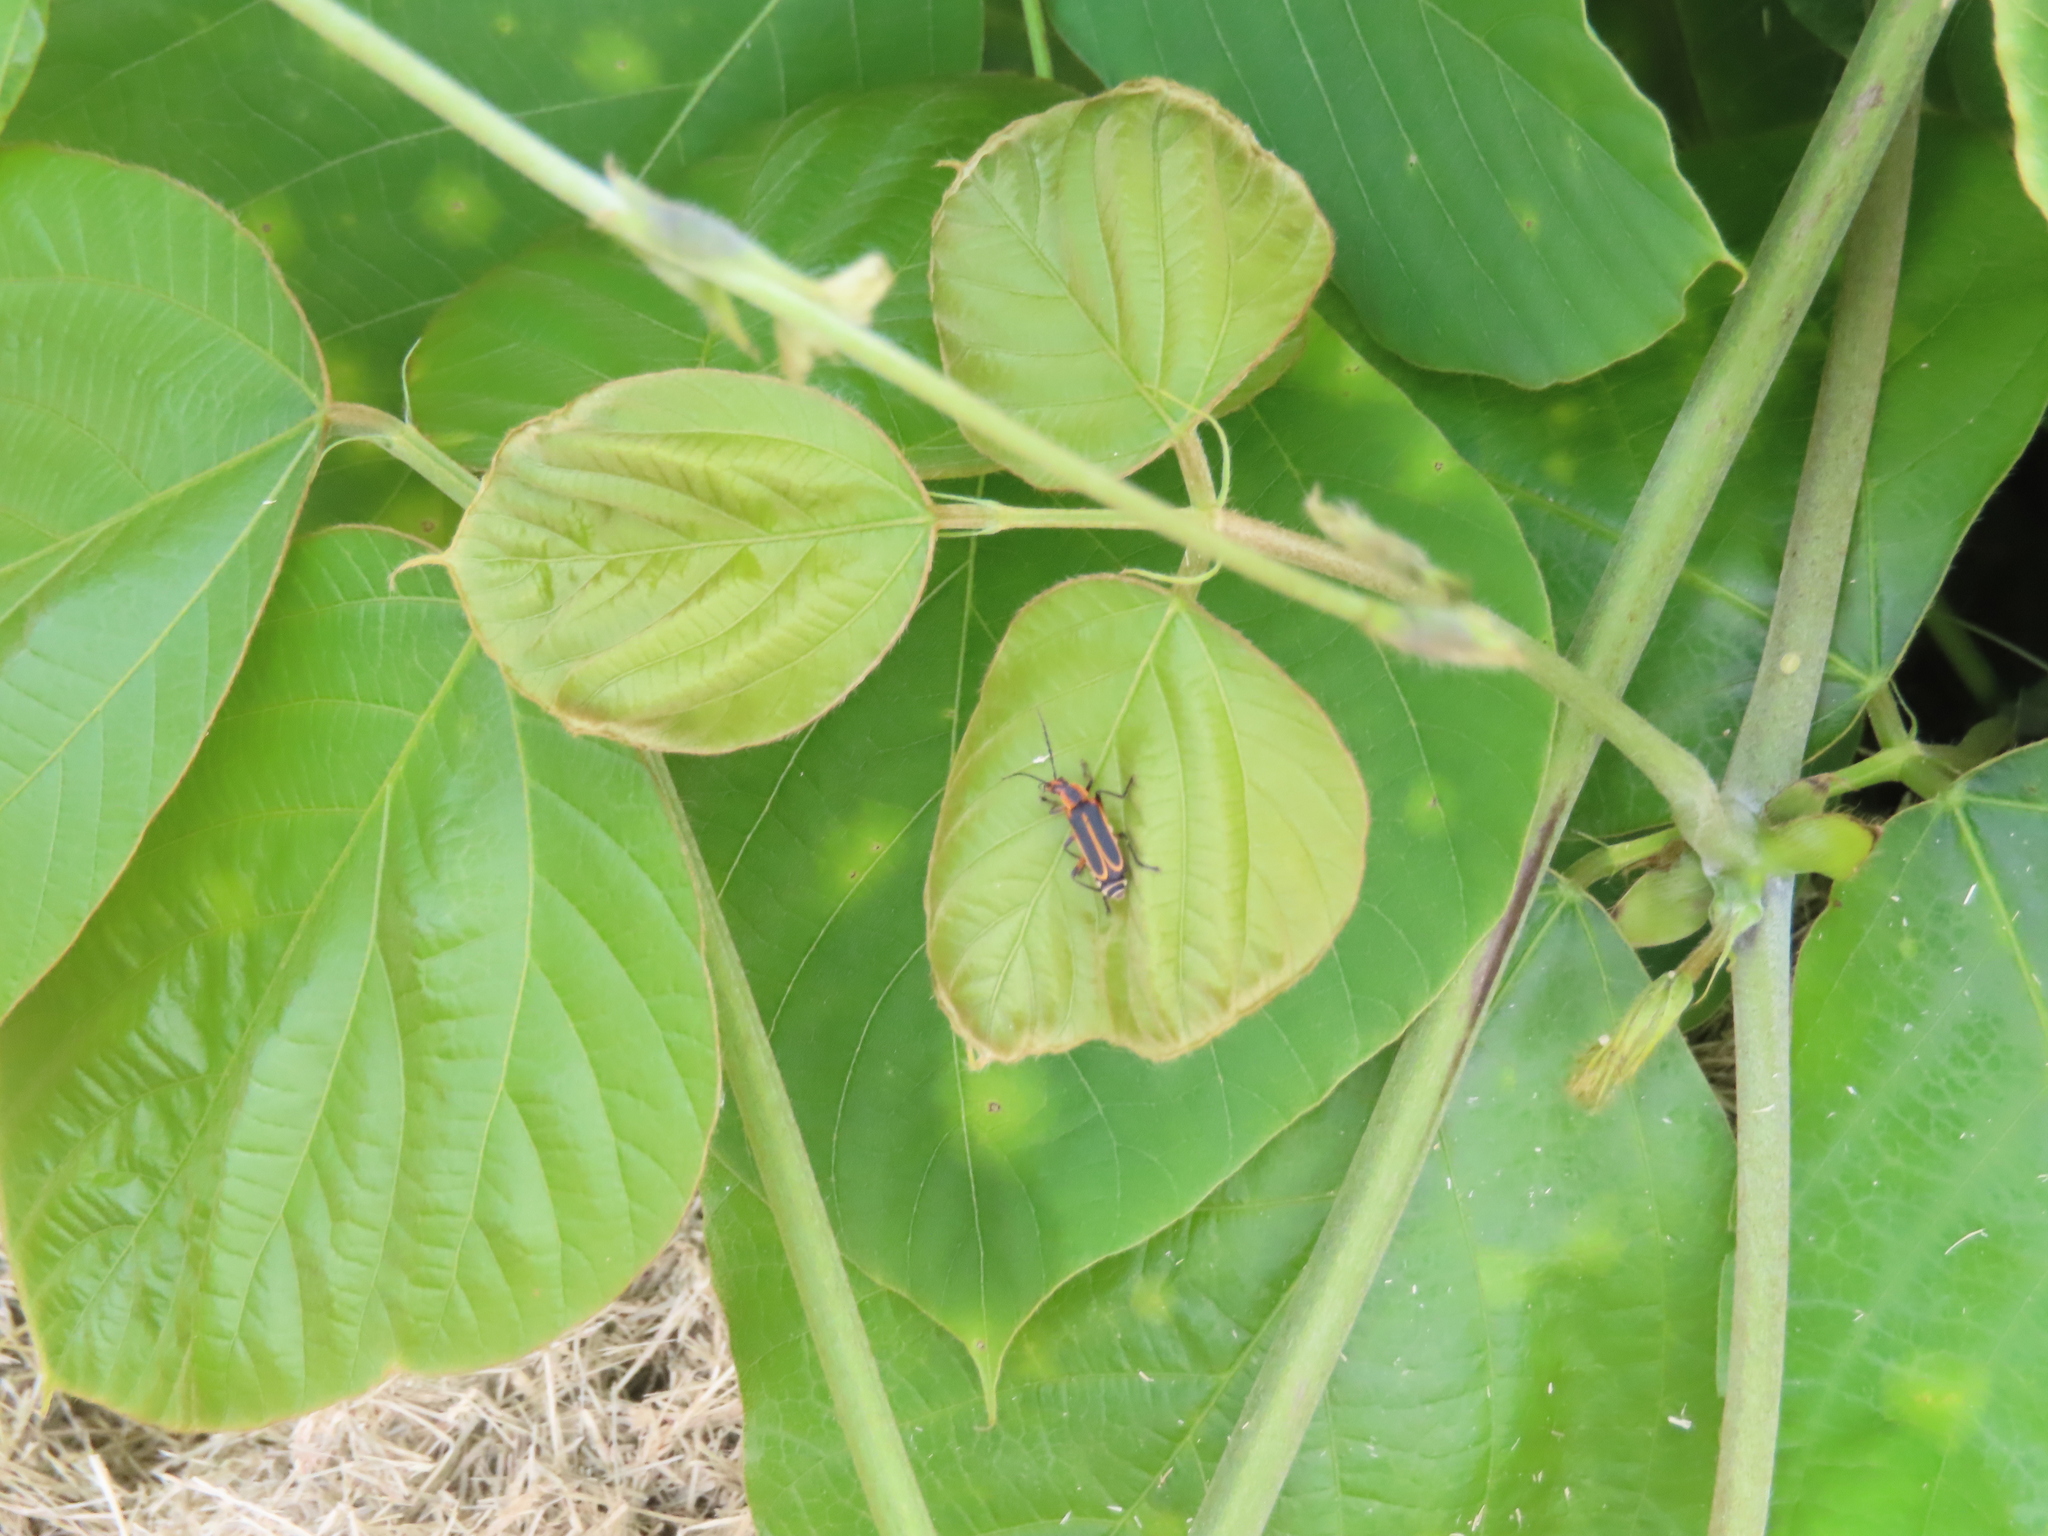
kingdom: Animalia
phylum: Arthropoda
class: Insecta
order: Coleoptera
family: Cantharidae
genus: Chauliognathus
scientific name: Chauliognathus marginatus
